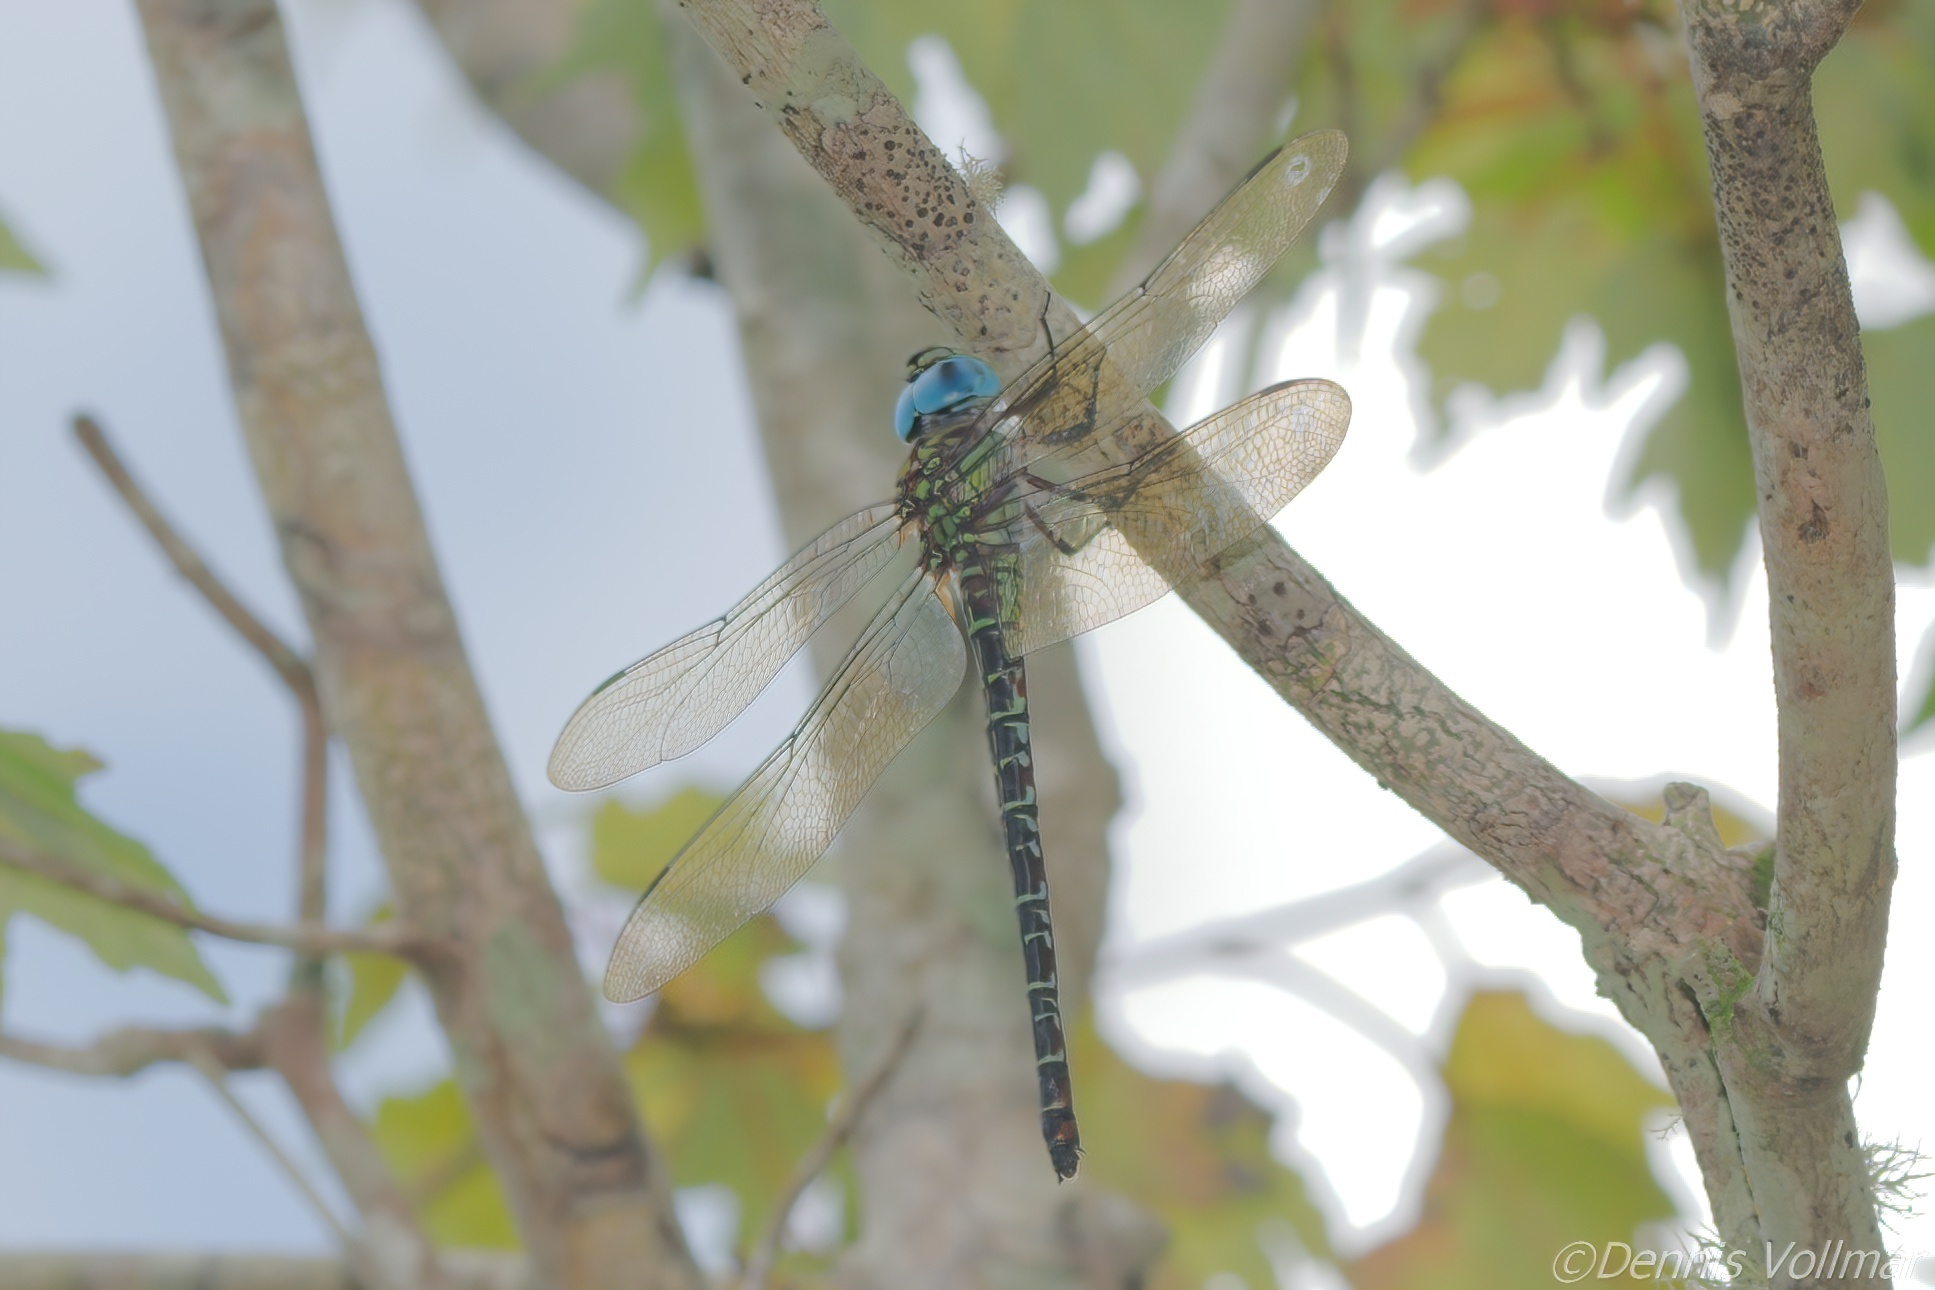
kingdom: Animalia
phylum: Arthropoda
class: Insecta
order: Odonata
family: Aeshnidae
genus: Coryphaeschna
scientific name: Coryphaeschna ingens
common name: Regal darner
